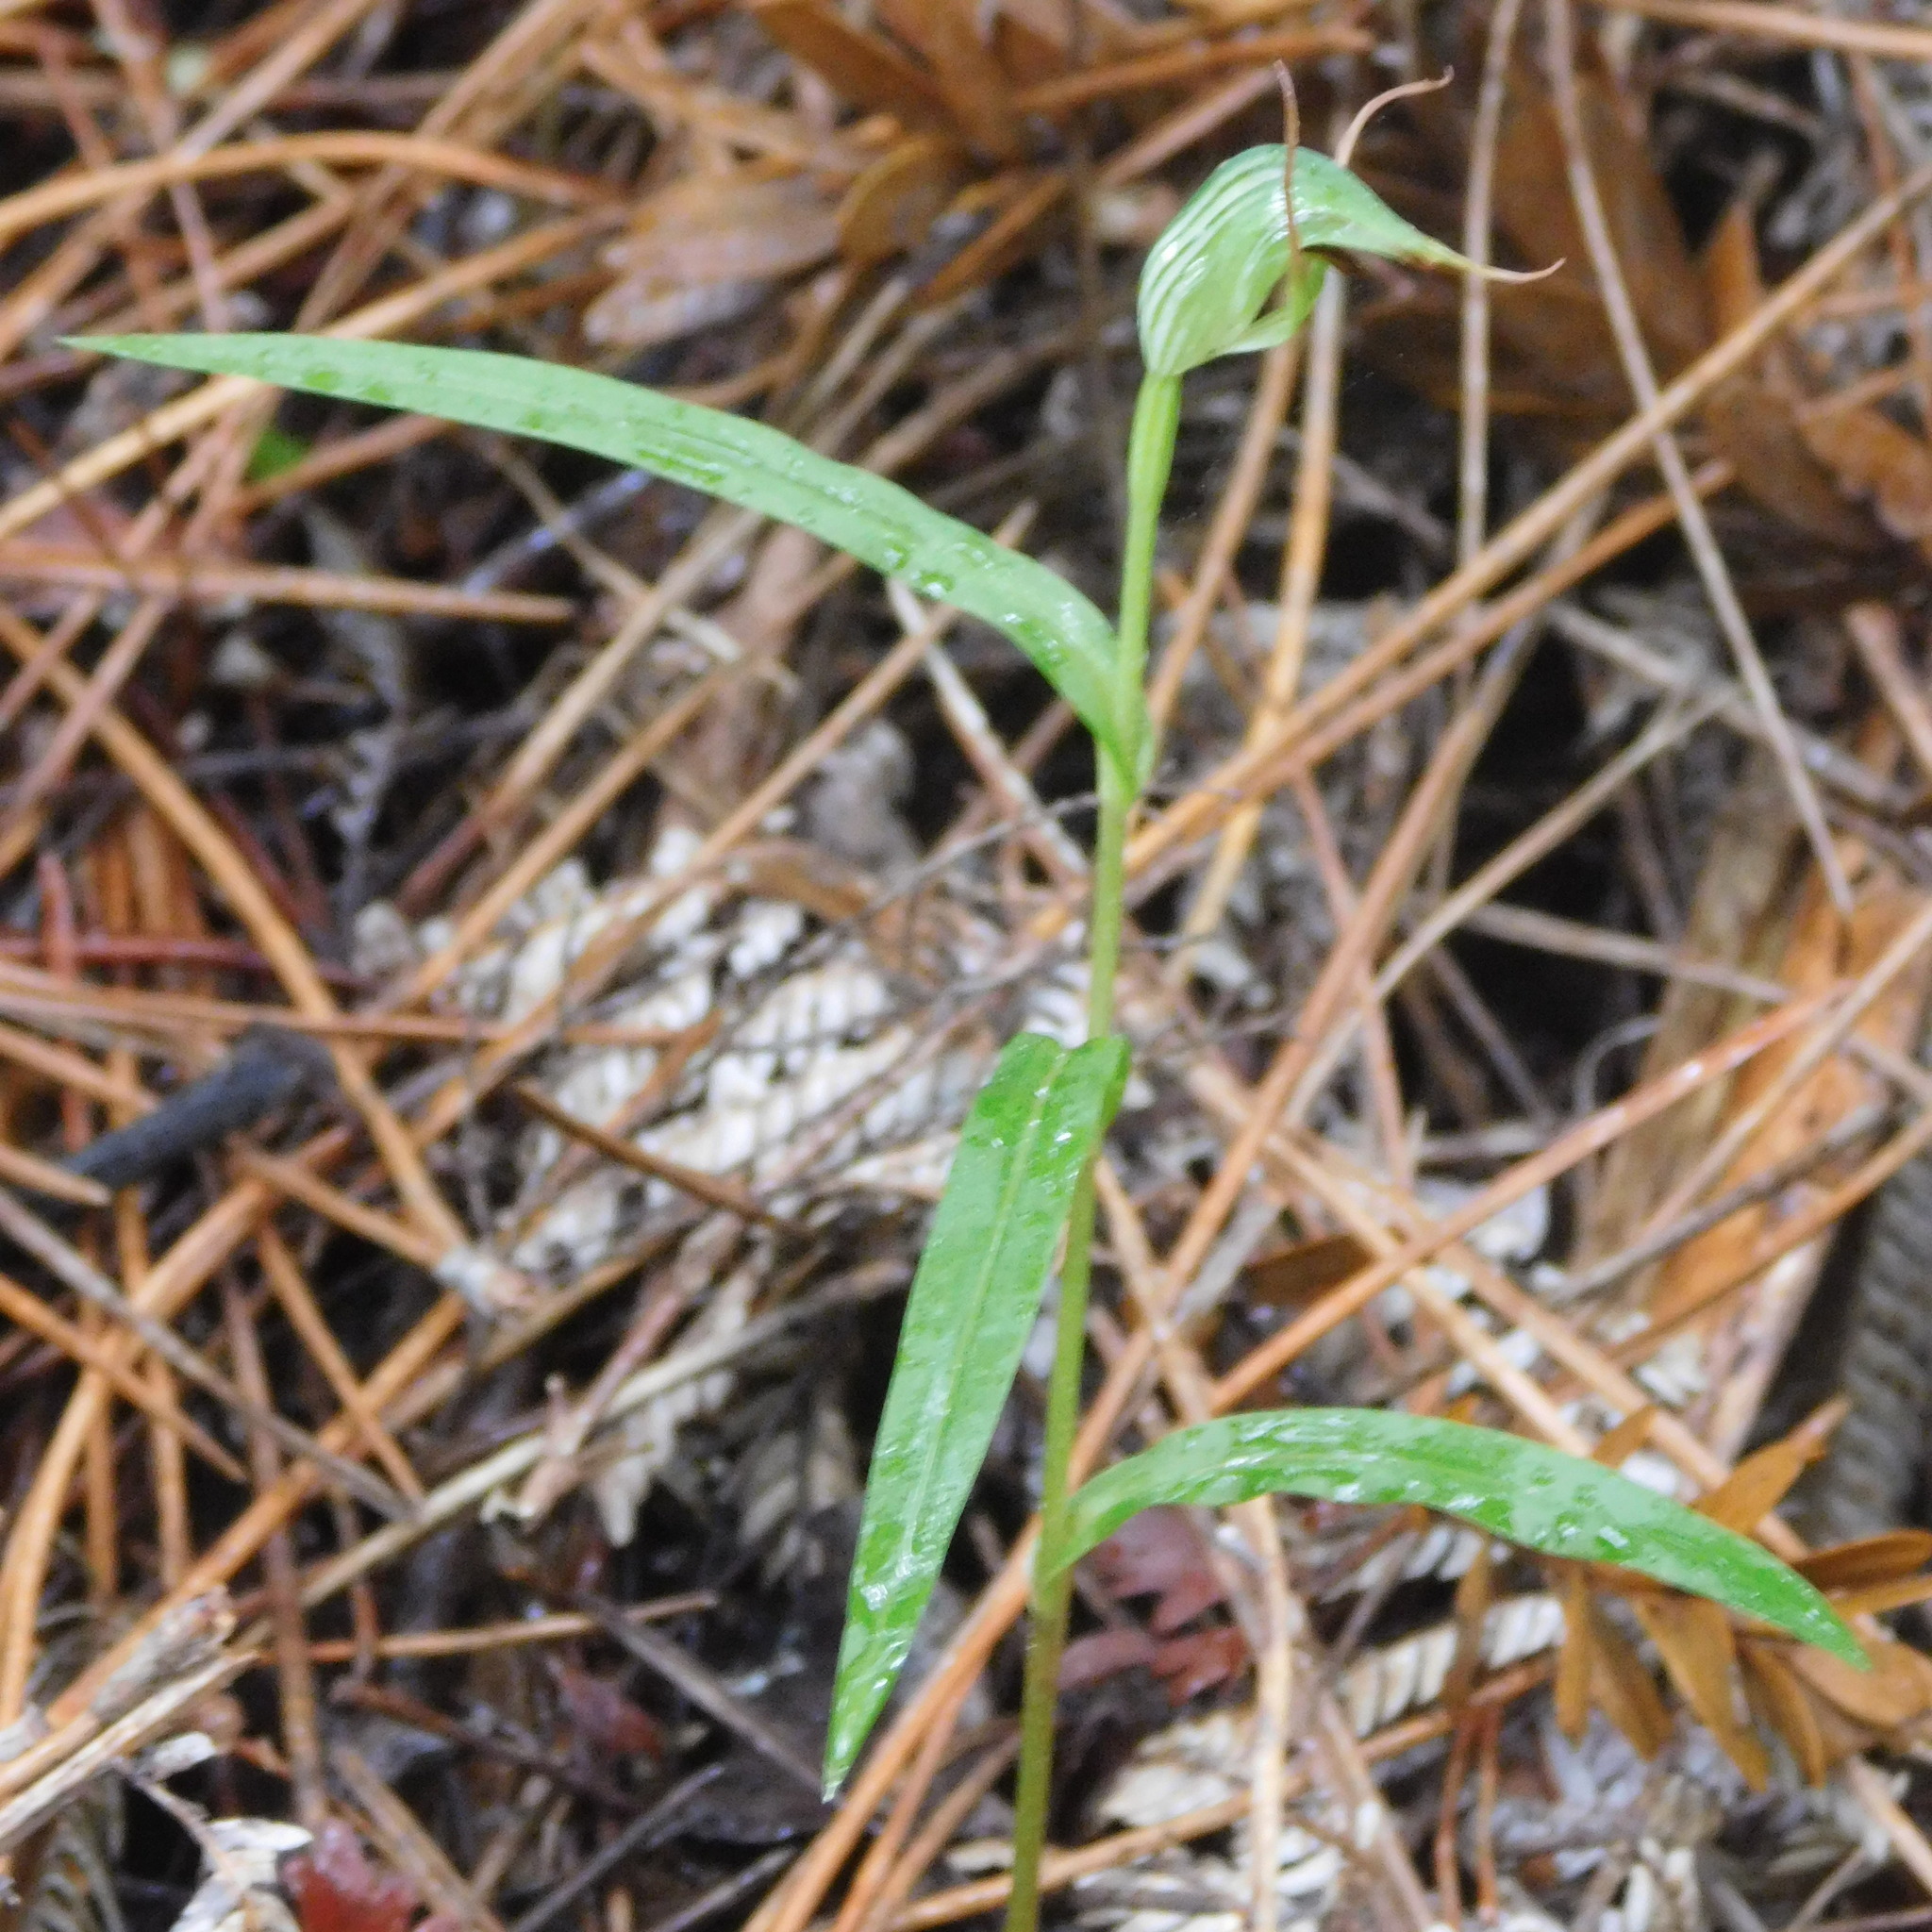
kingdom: Plantae
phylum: Tracheophyta
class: Liliopsida
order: Asparagales
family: Orchidaceae
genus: Pterostylis
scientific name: Pterostylis agathicola
